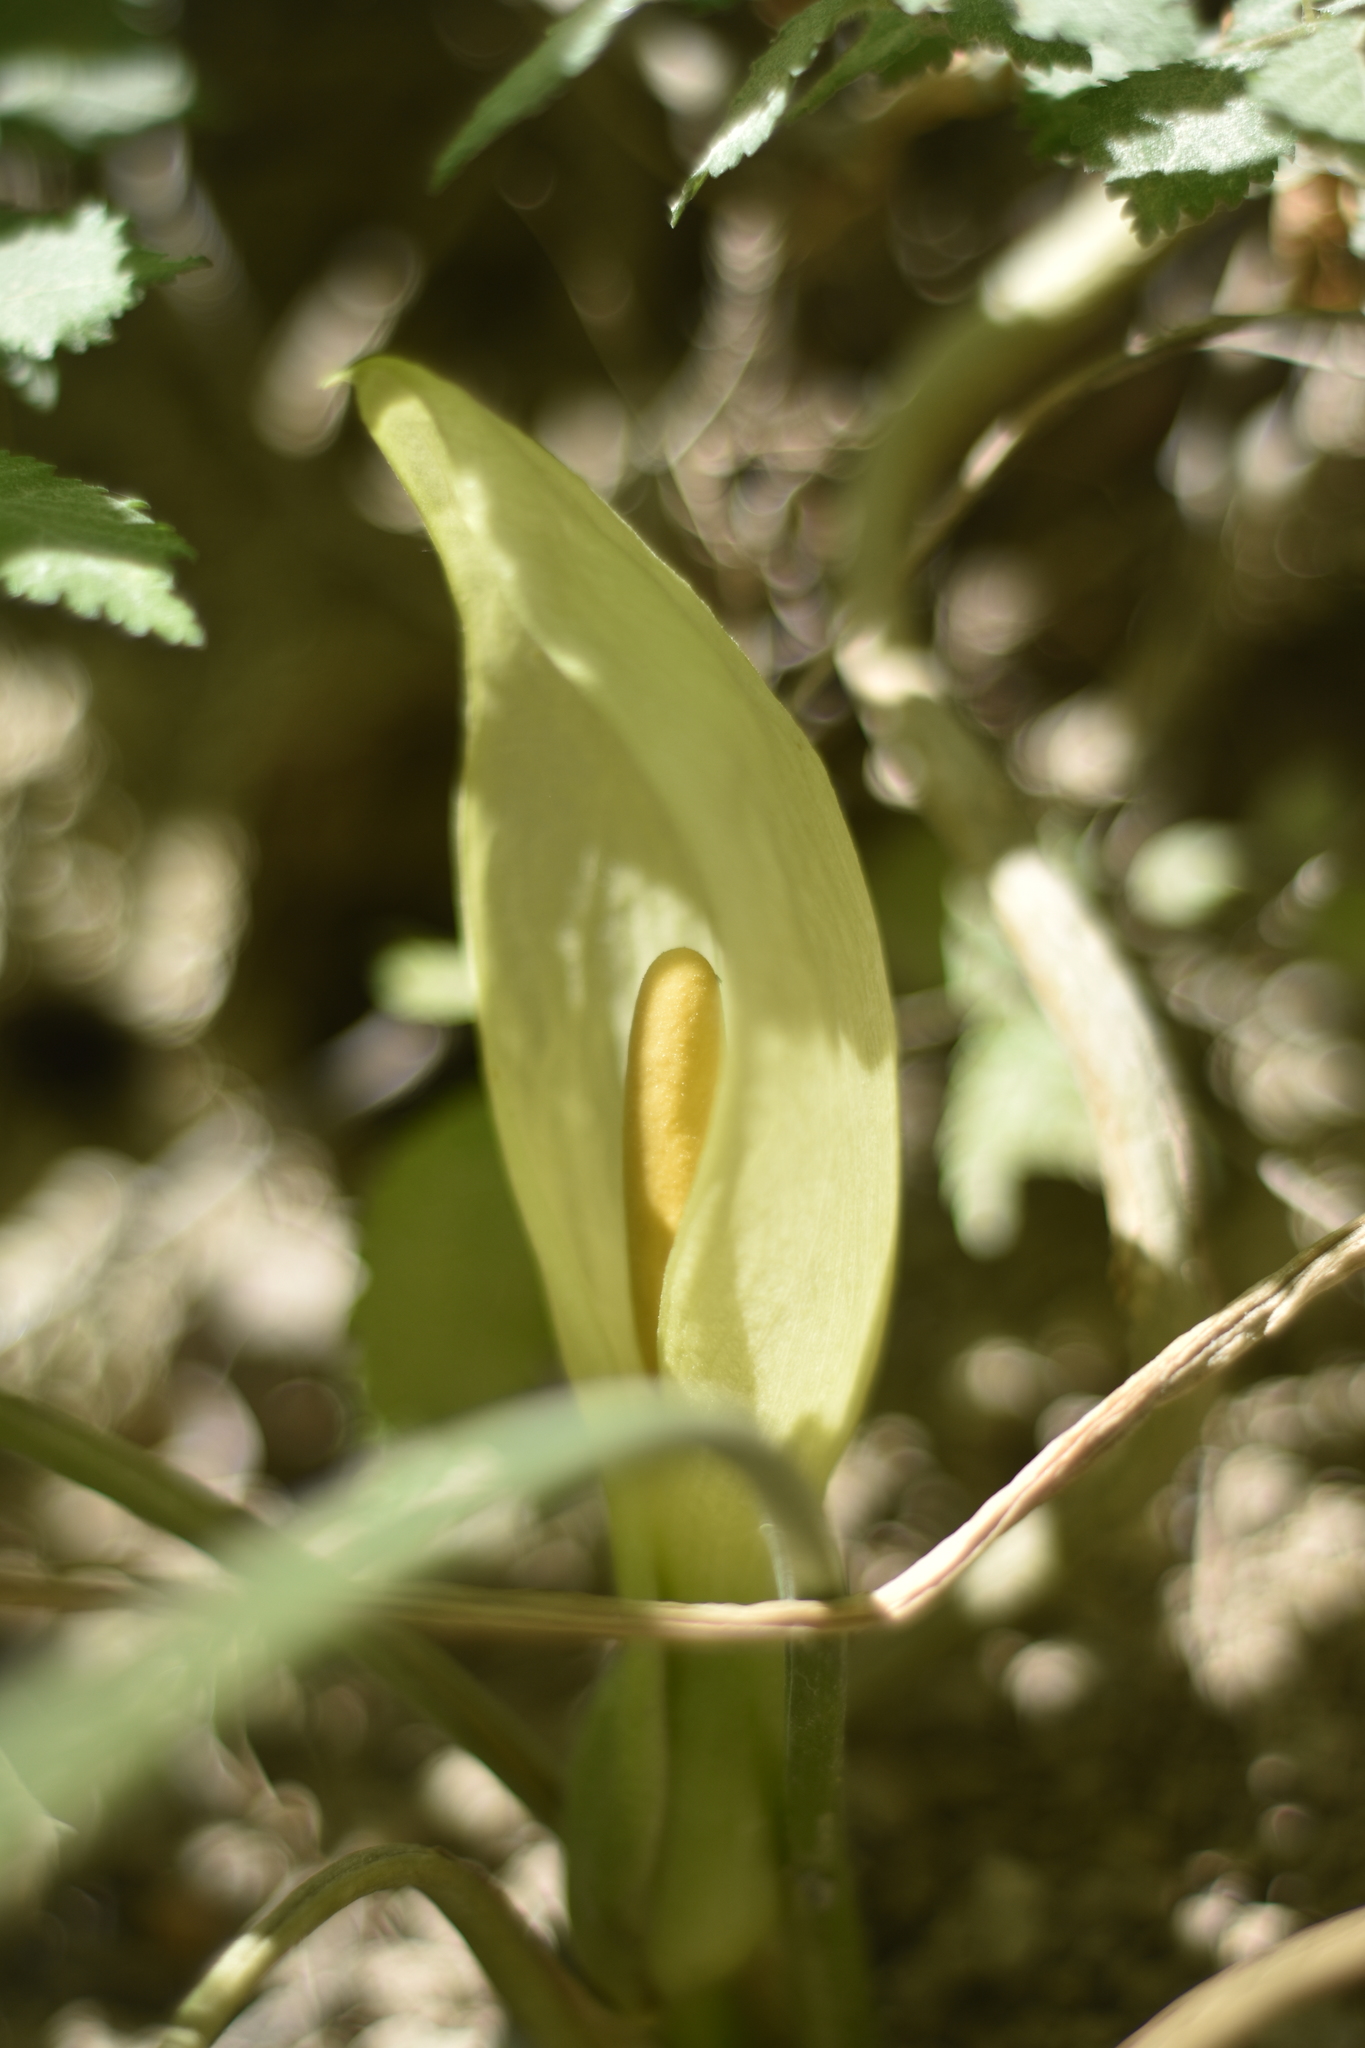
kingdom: Plantae
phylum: Tracheophyta
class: Liliopsida
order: Alismatales
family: Araceae
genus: Arum
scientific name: Arum italicum
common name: Italian lords-and-ladies
